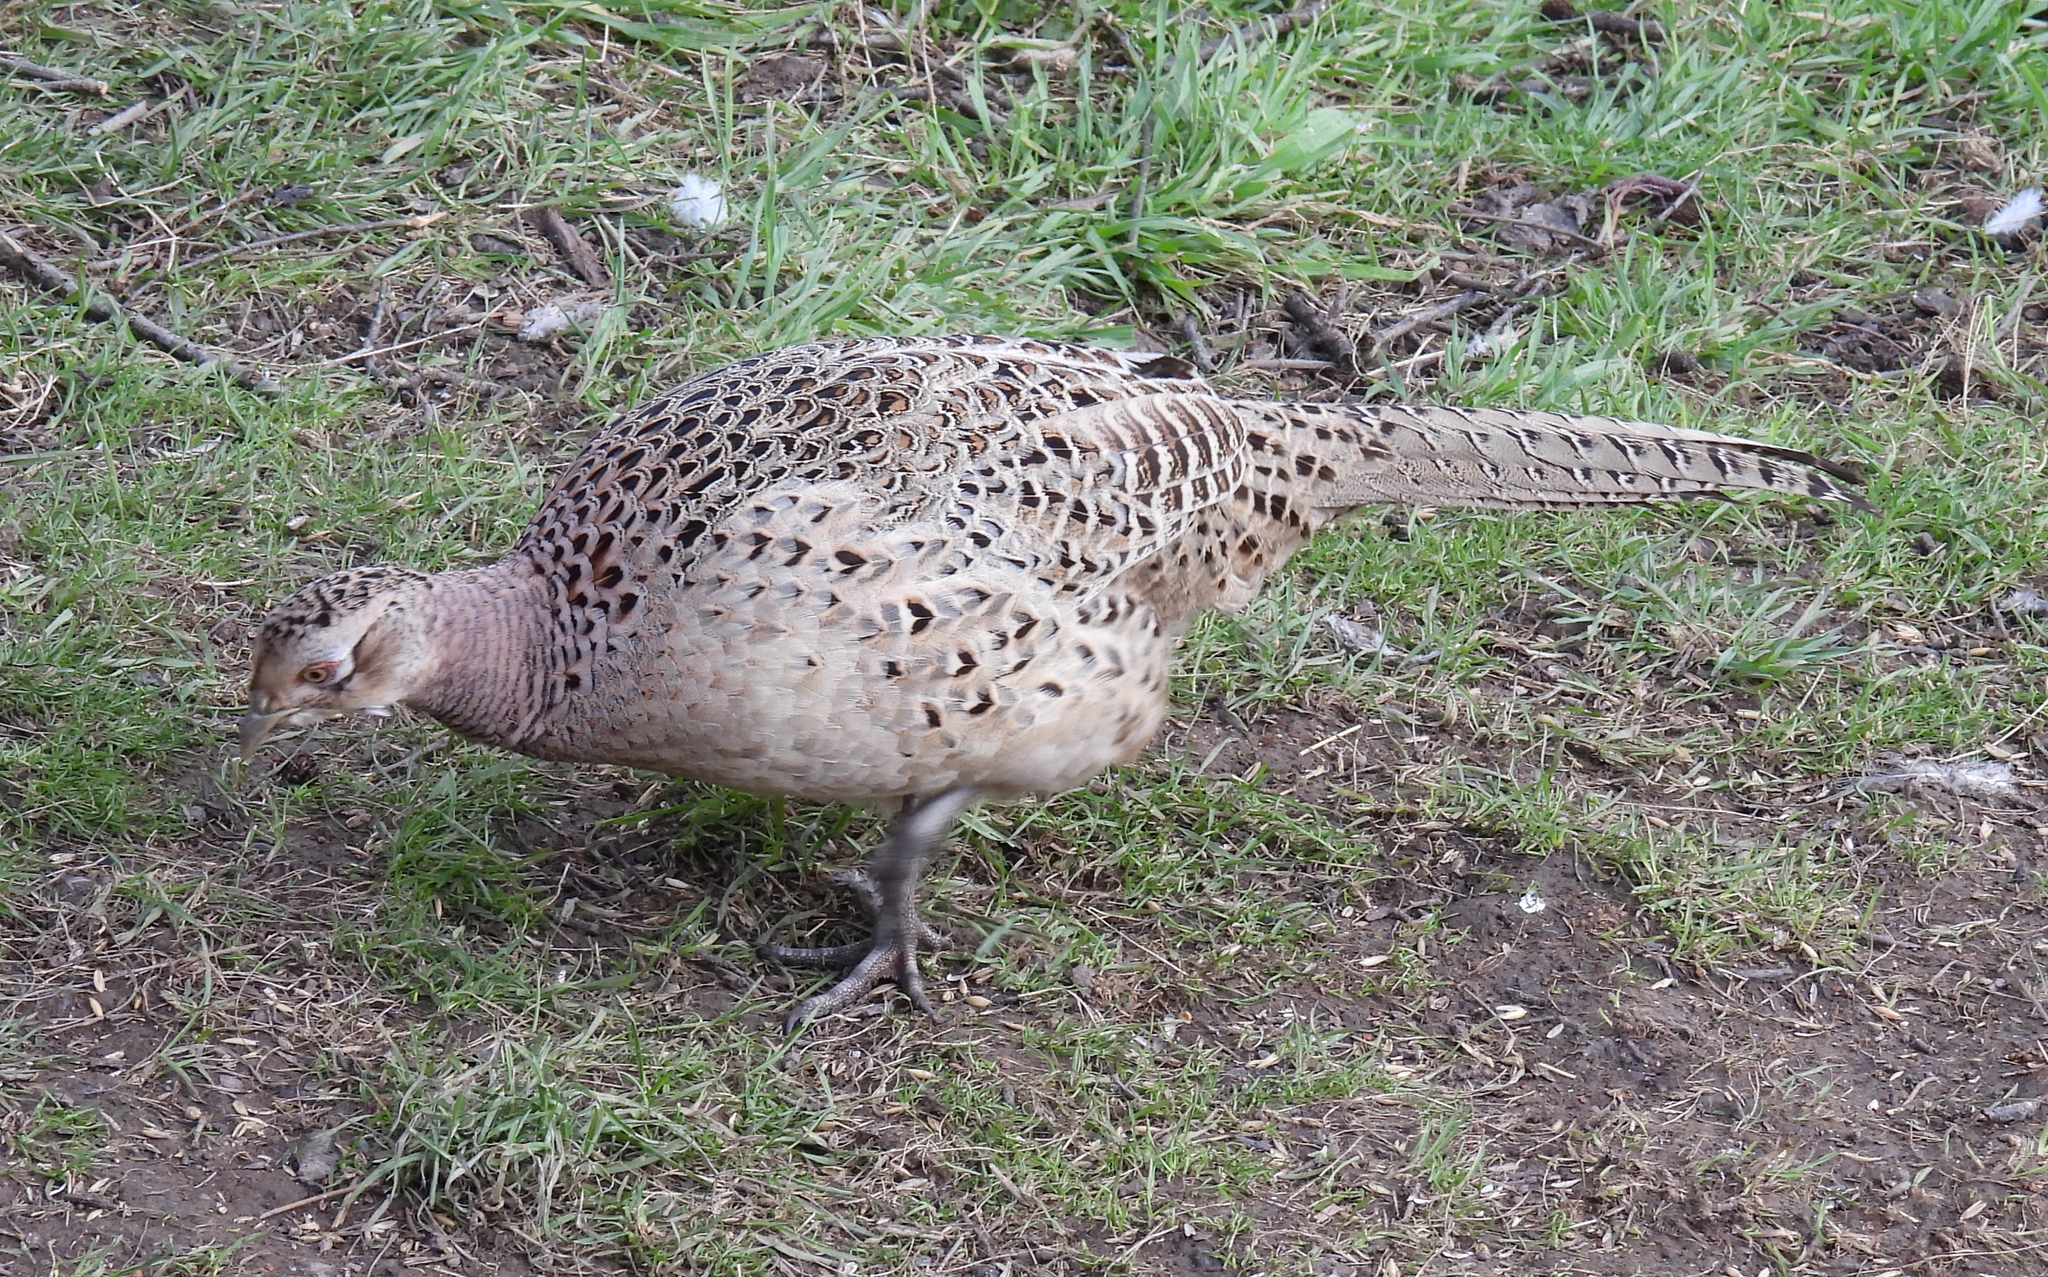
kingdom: Animalia
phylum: Chordata
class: Aves
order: Galliformes
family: Phasianidae
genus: Phasianus
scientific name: Phasianus colchicus
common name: Common pheasant
